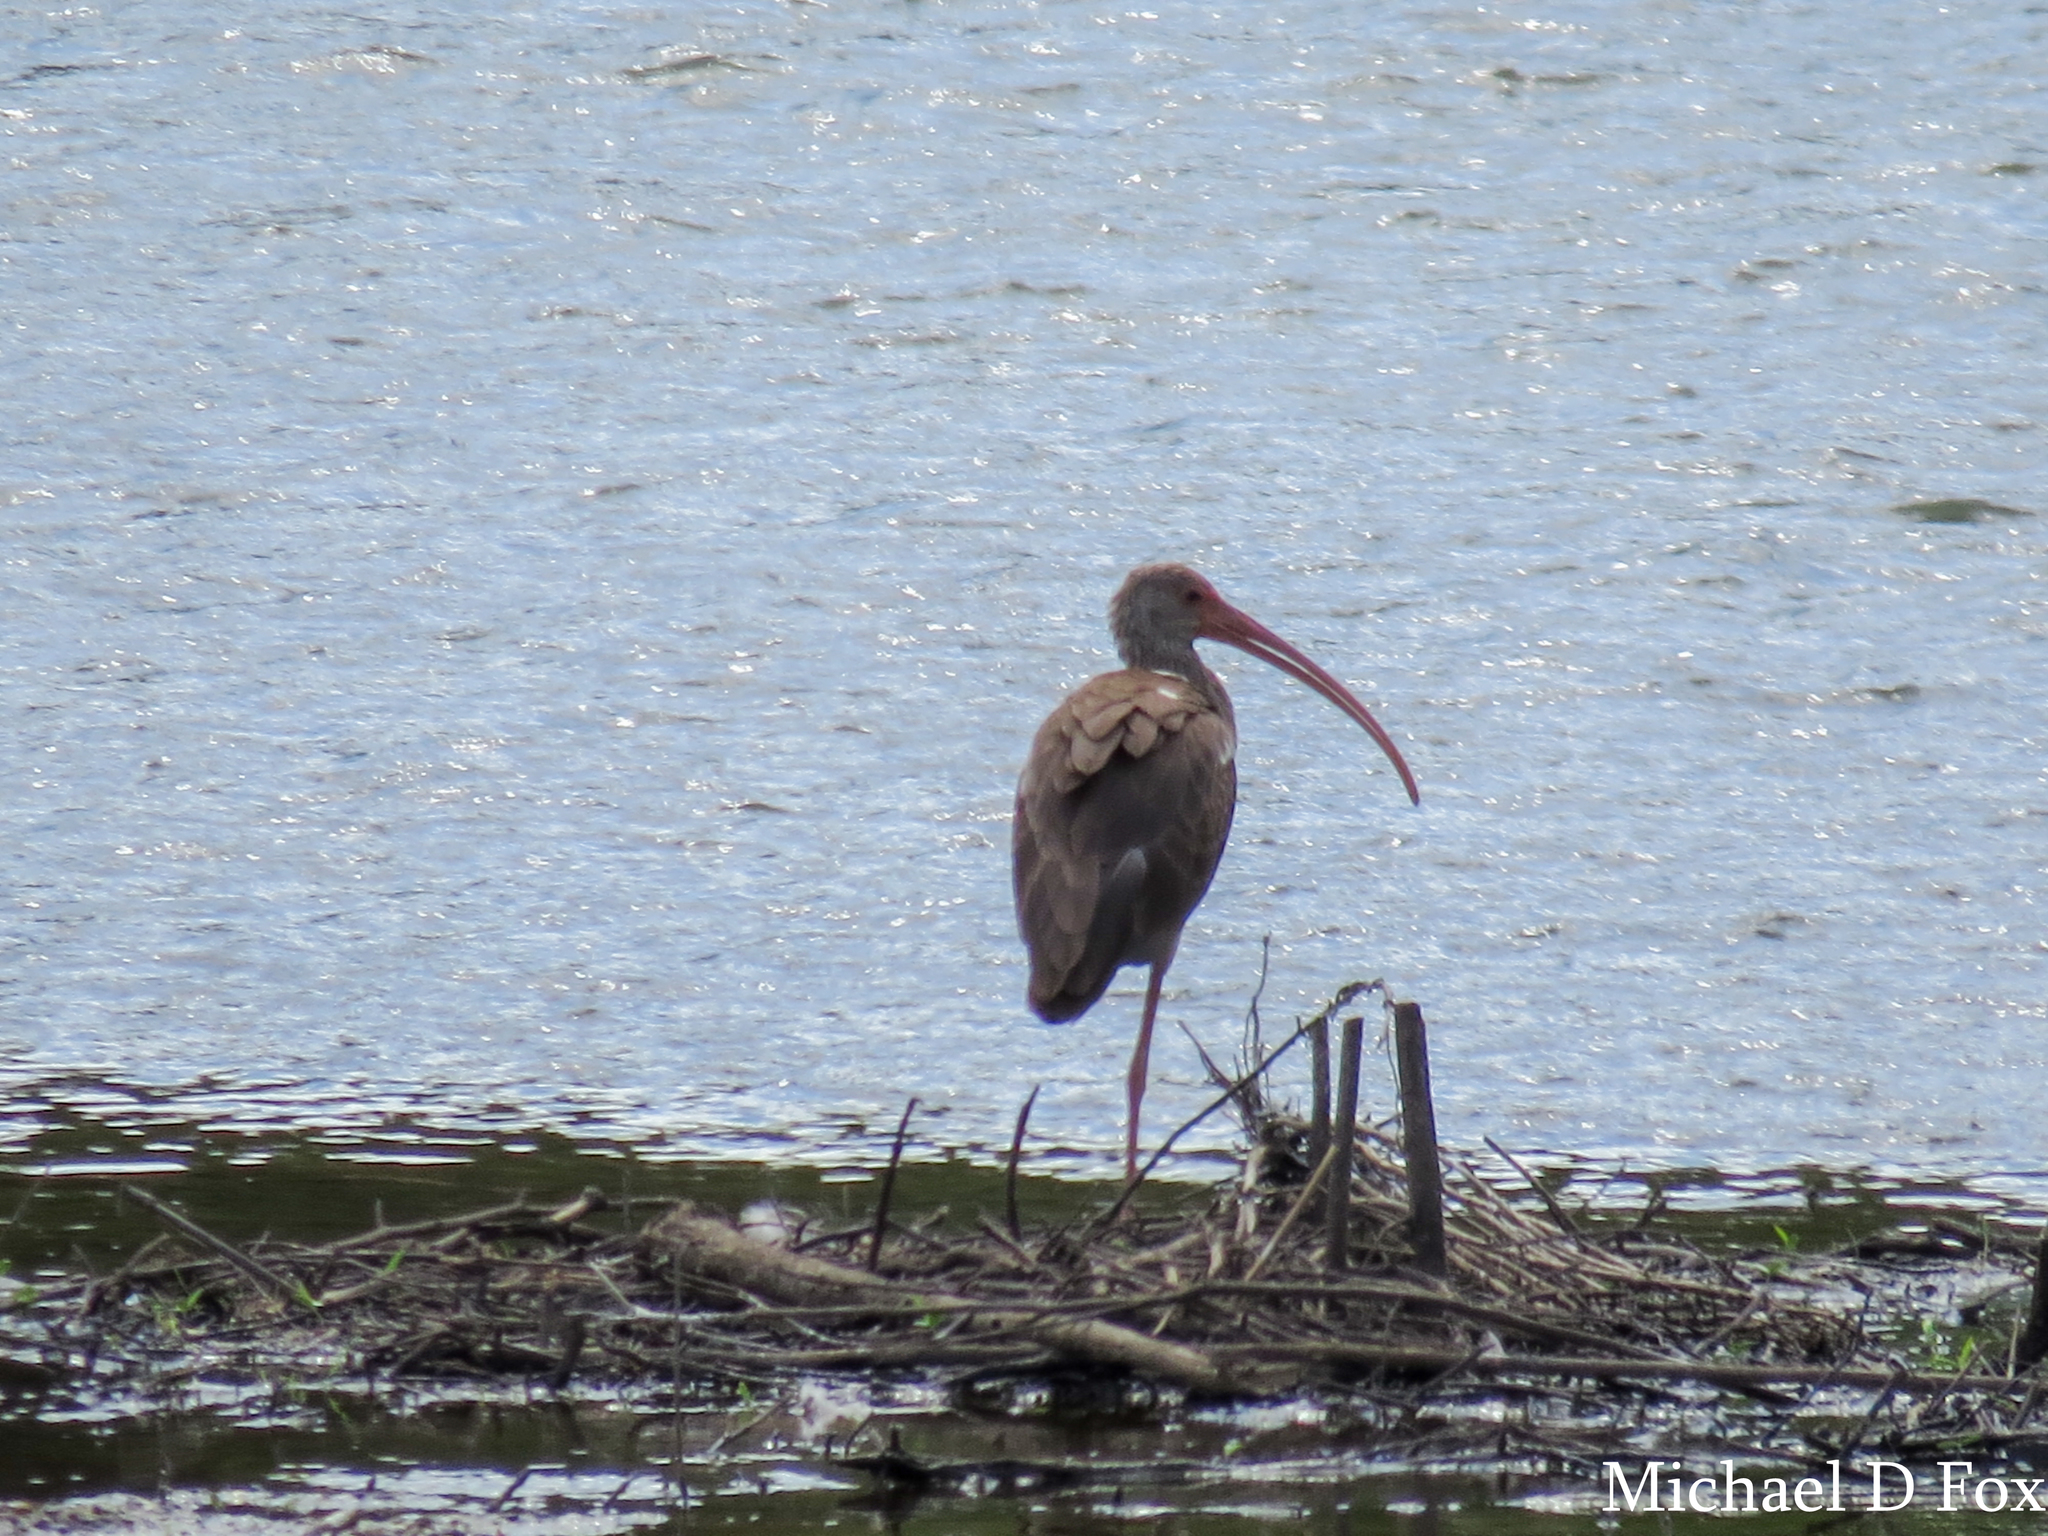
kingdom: Animalia
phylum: Chordata
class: Aves
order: Pelecaniformes
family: Threskiornithidae
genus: Eudocimus
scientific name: Eudocimus albus
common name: White ibis
